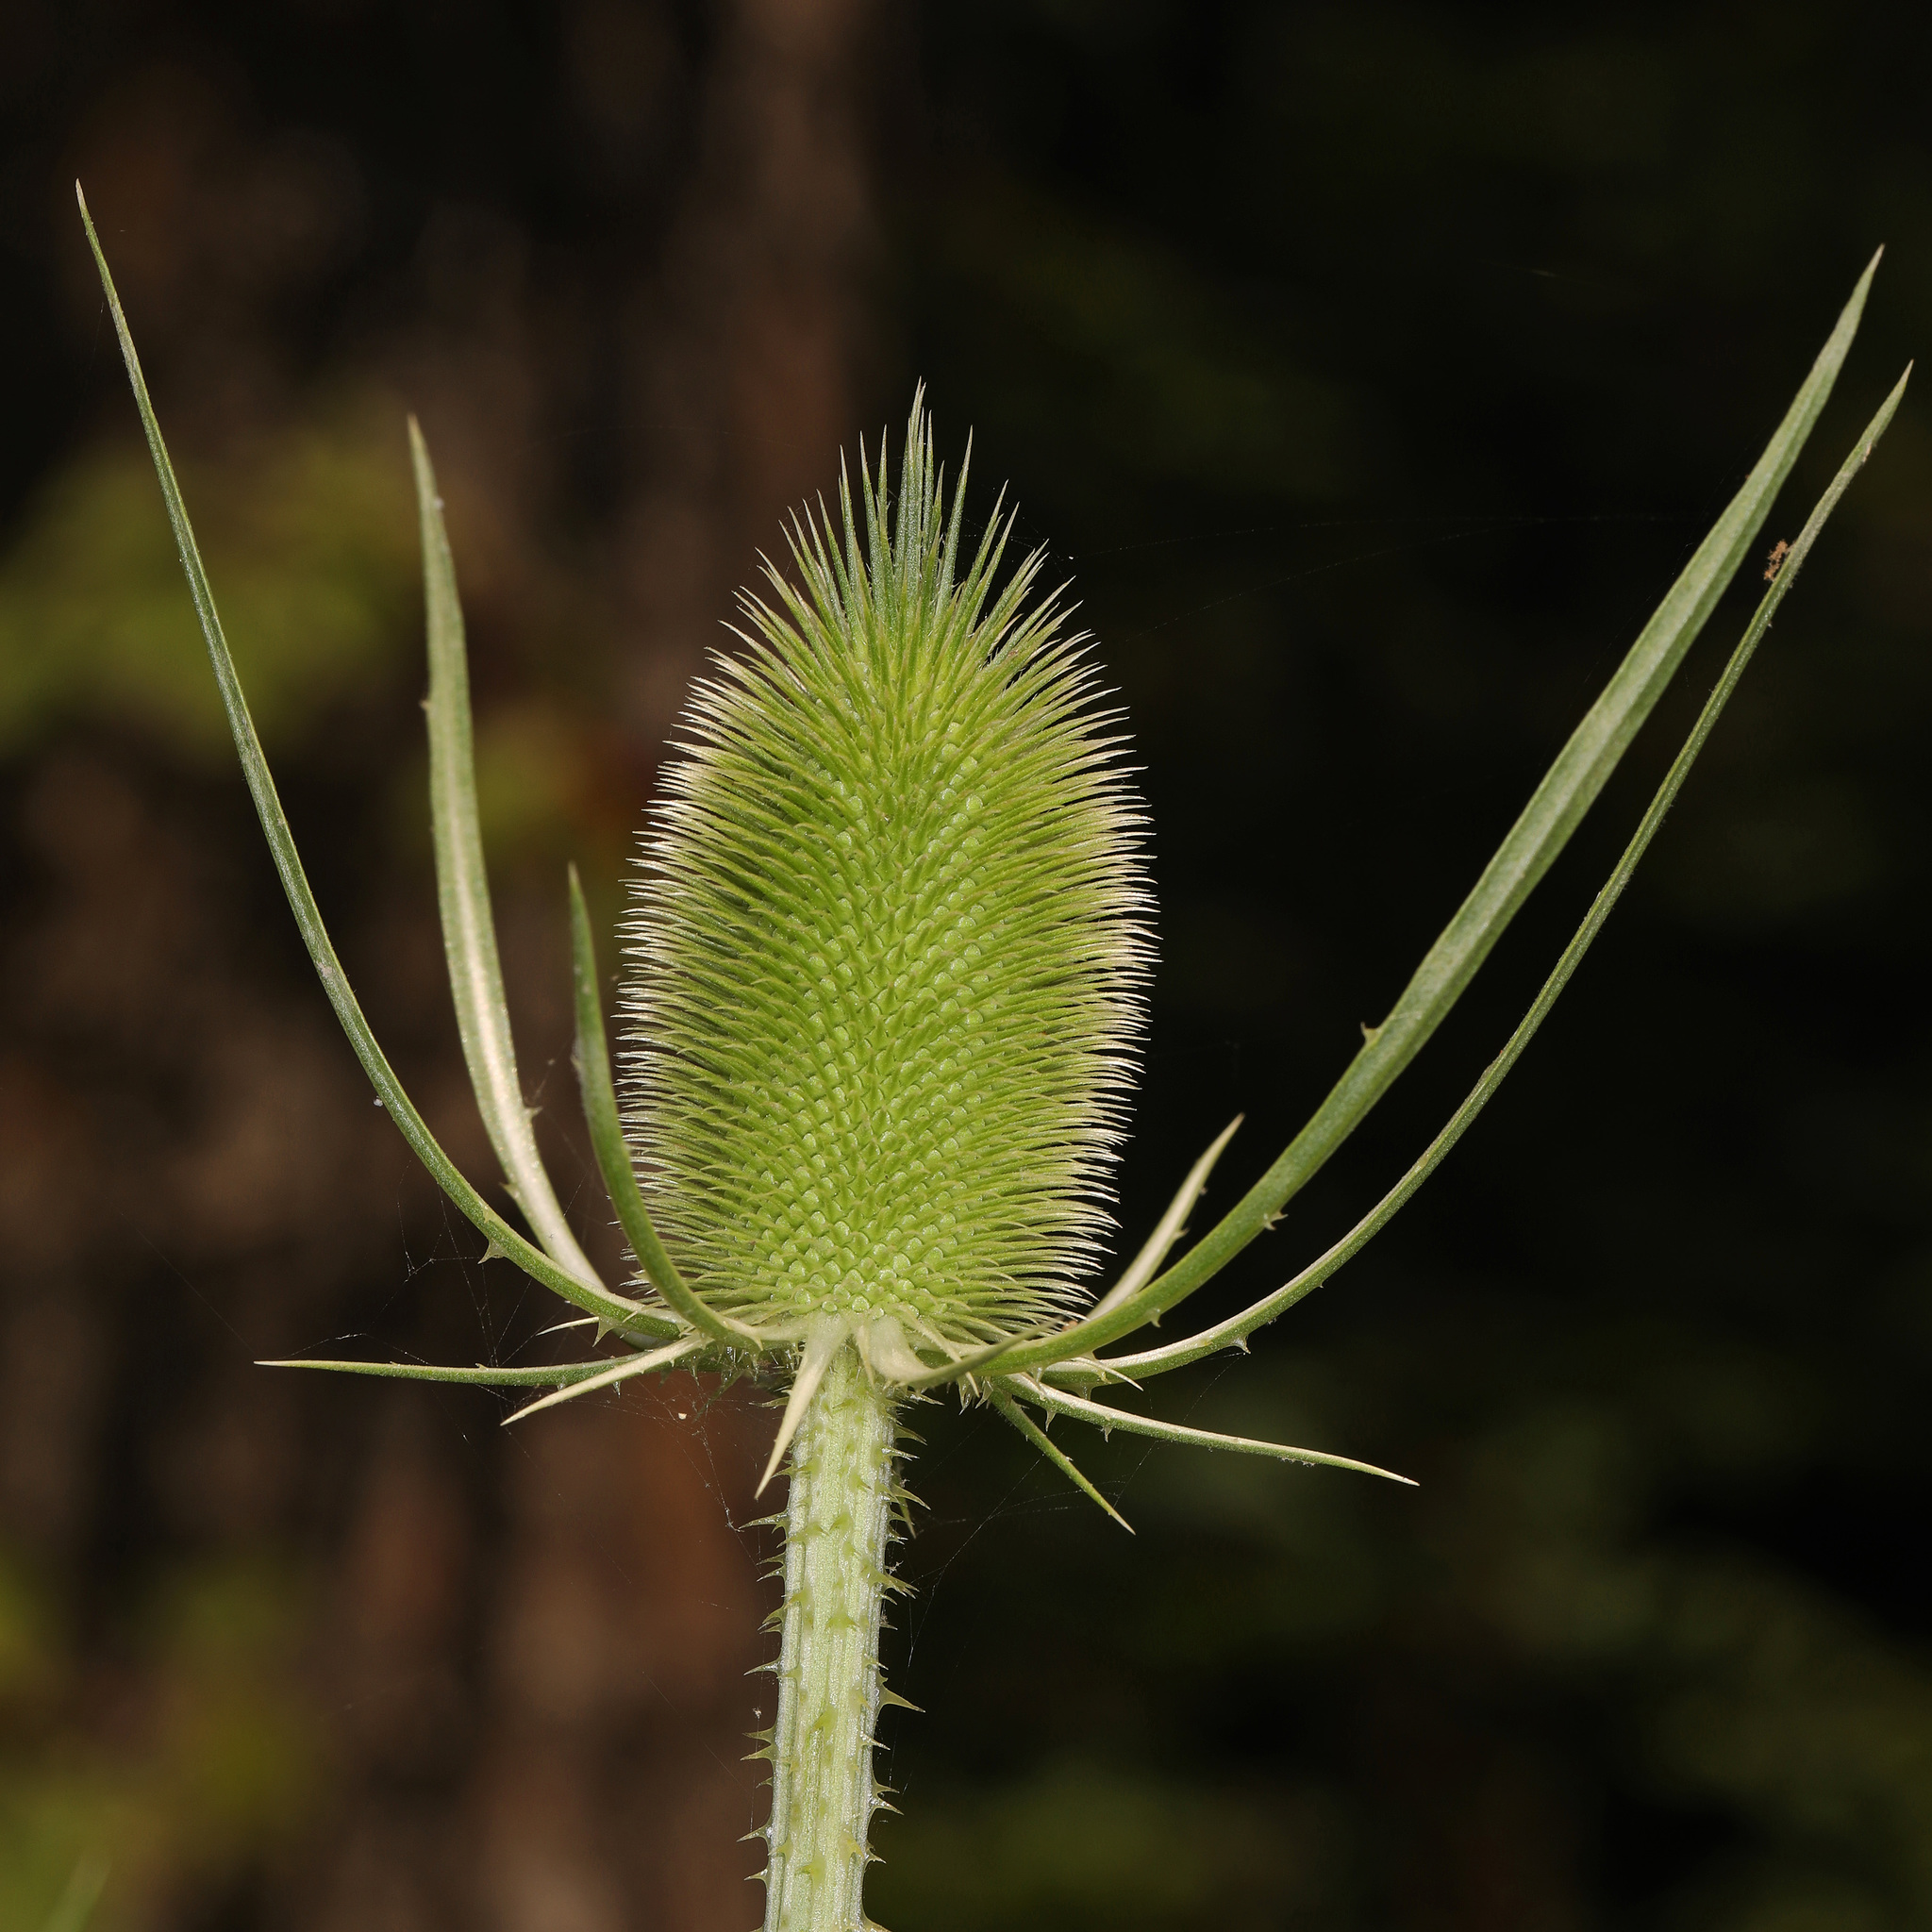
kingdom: Plantae
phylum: Tracheophyta
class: Magnoliopsida
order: Dipsacales
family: Caprifoliaceae
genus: Dipsacus
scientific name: Dipsacus fullonum
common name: Teasel
